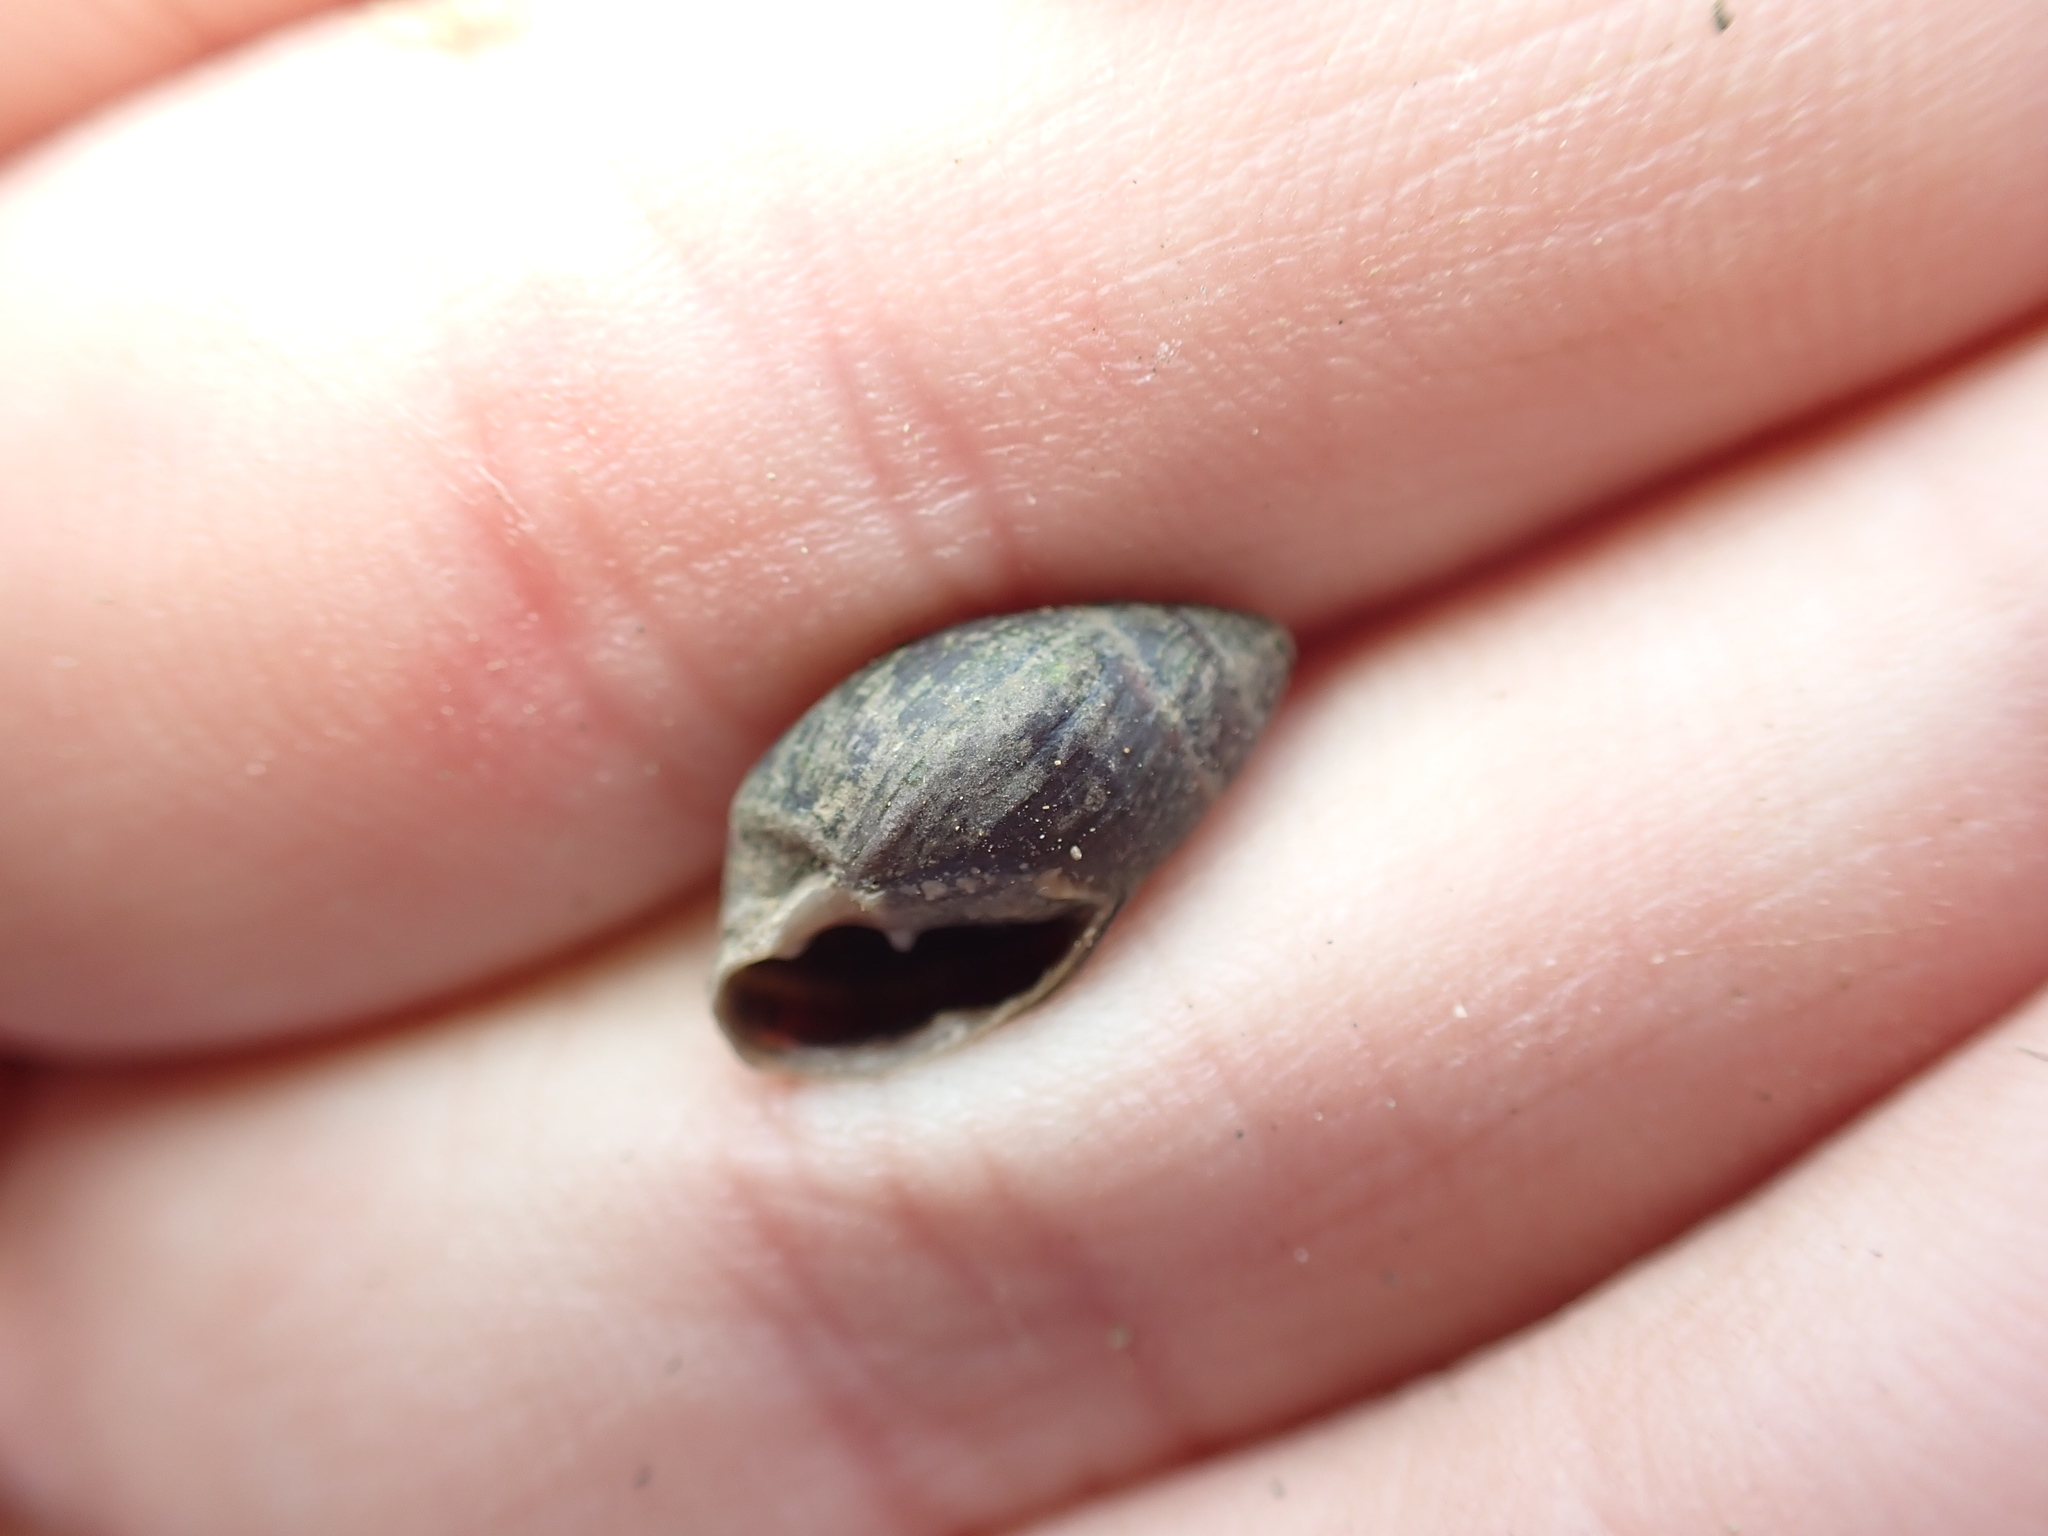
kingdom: Animalia
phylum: Mollusca
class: Gastropoda
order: Ellobiida
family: Ellobiidae
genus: Pleuroloba
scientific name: Pleuroloba costellaris
